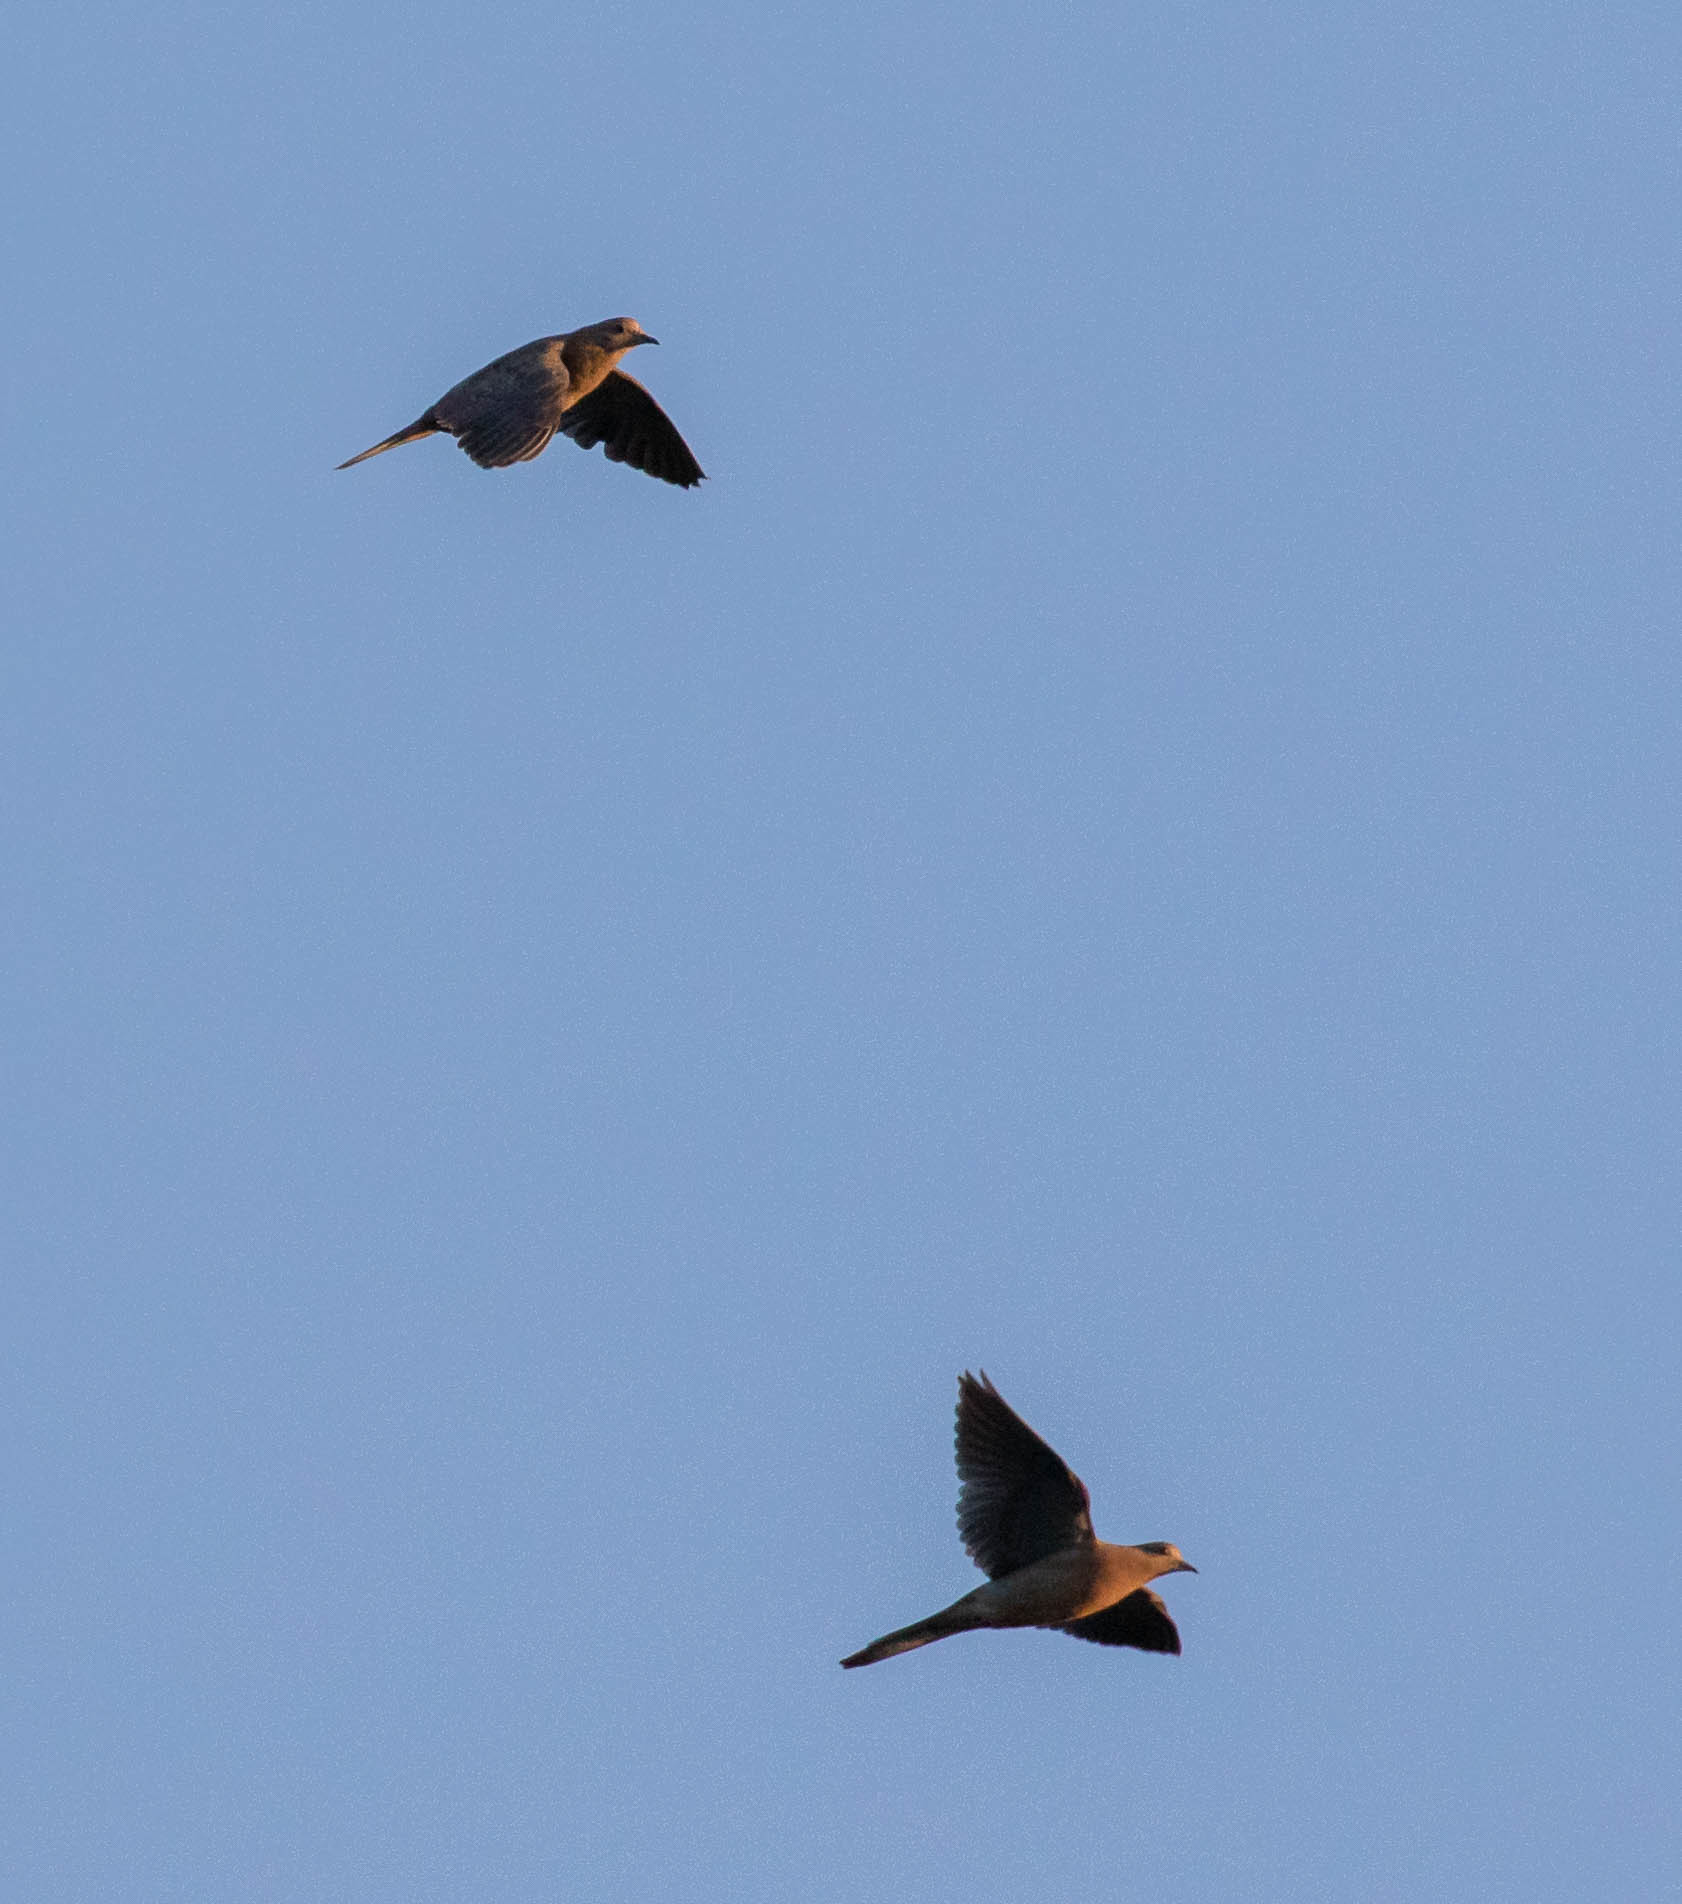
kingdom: Animalia
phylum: Chordata
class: Aves
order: Columbiformes
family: Columbidae
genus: Zenaida
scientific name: Zenaida macroura
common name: Mourning dove
